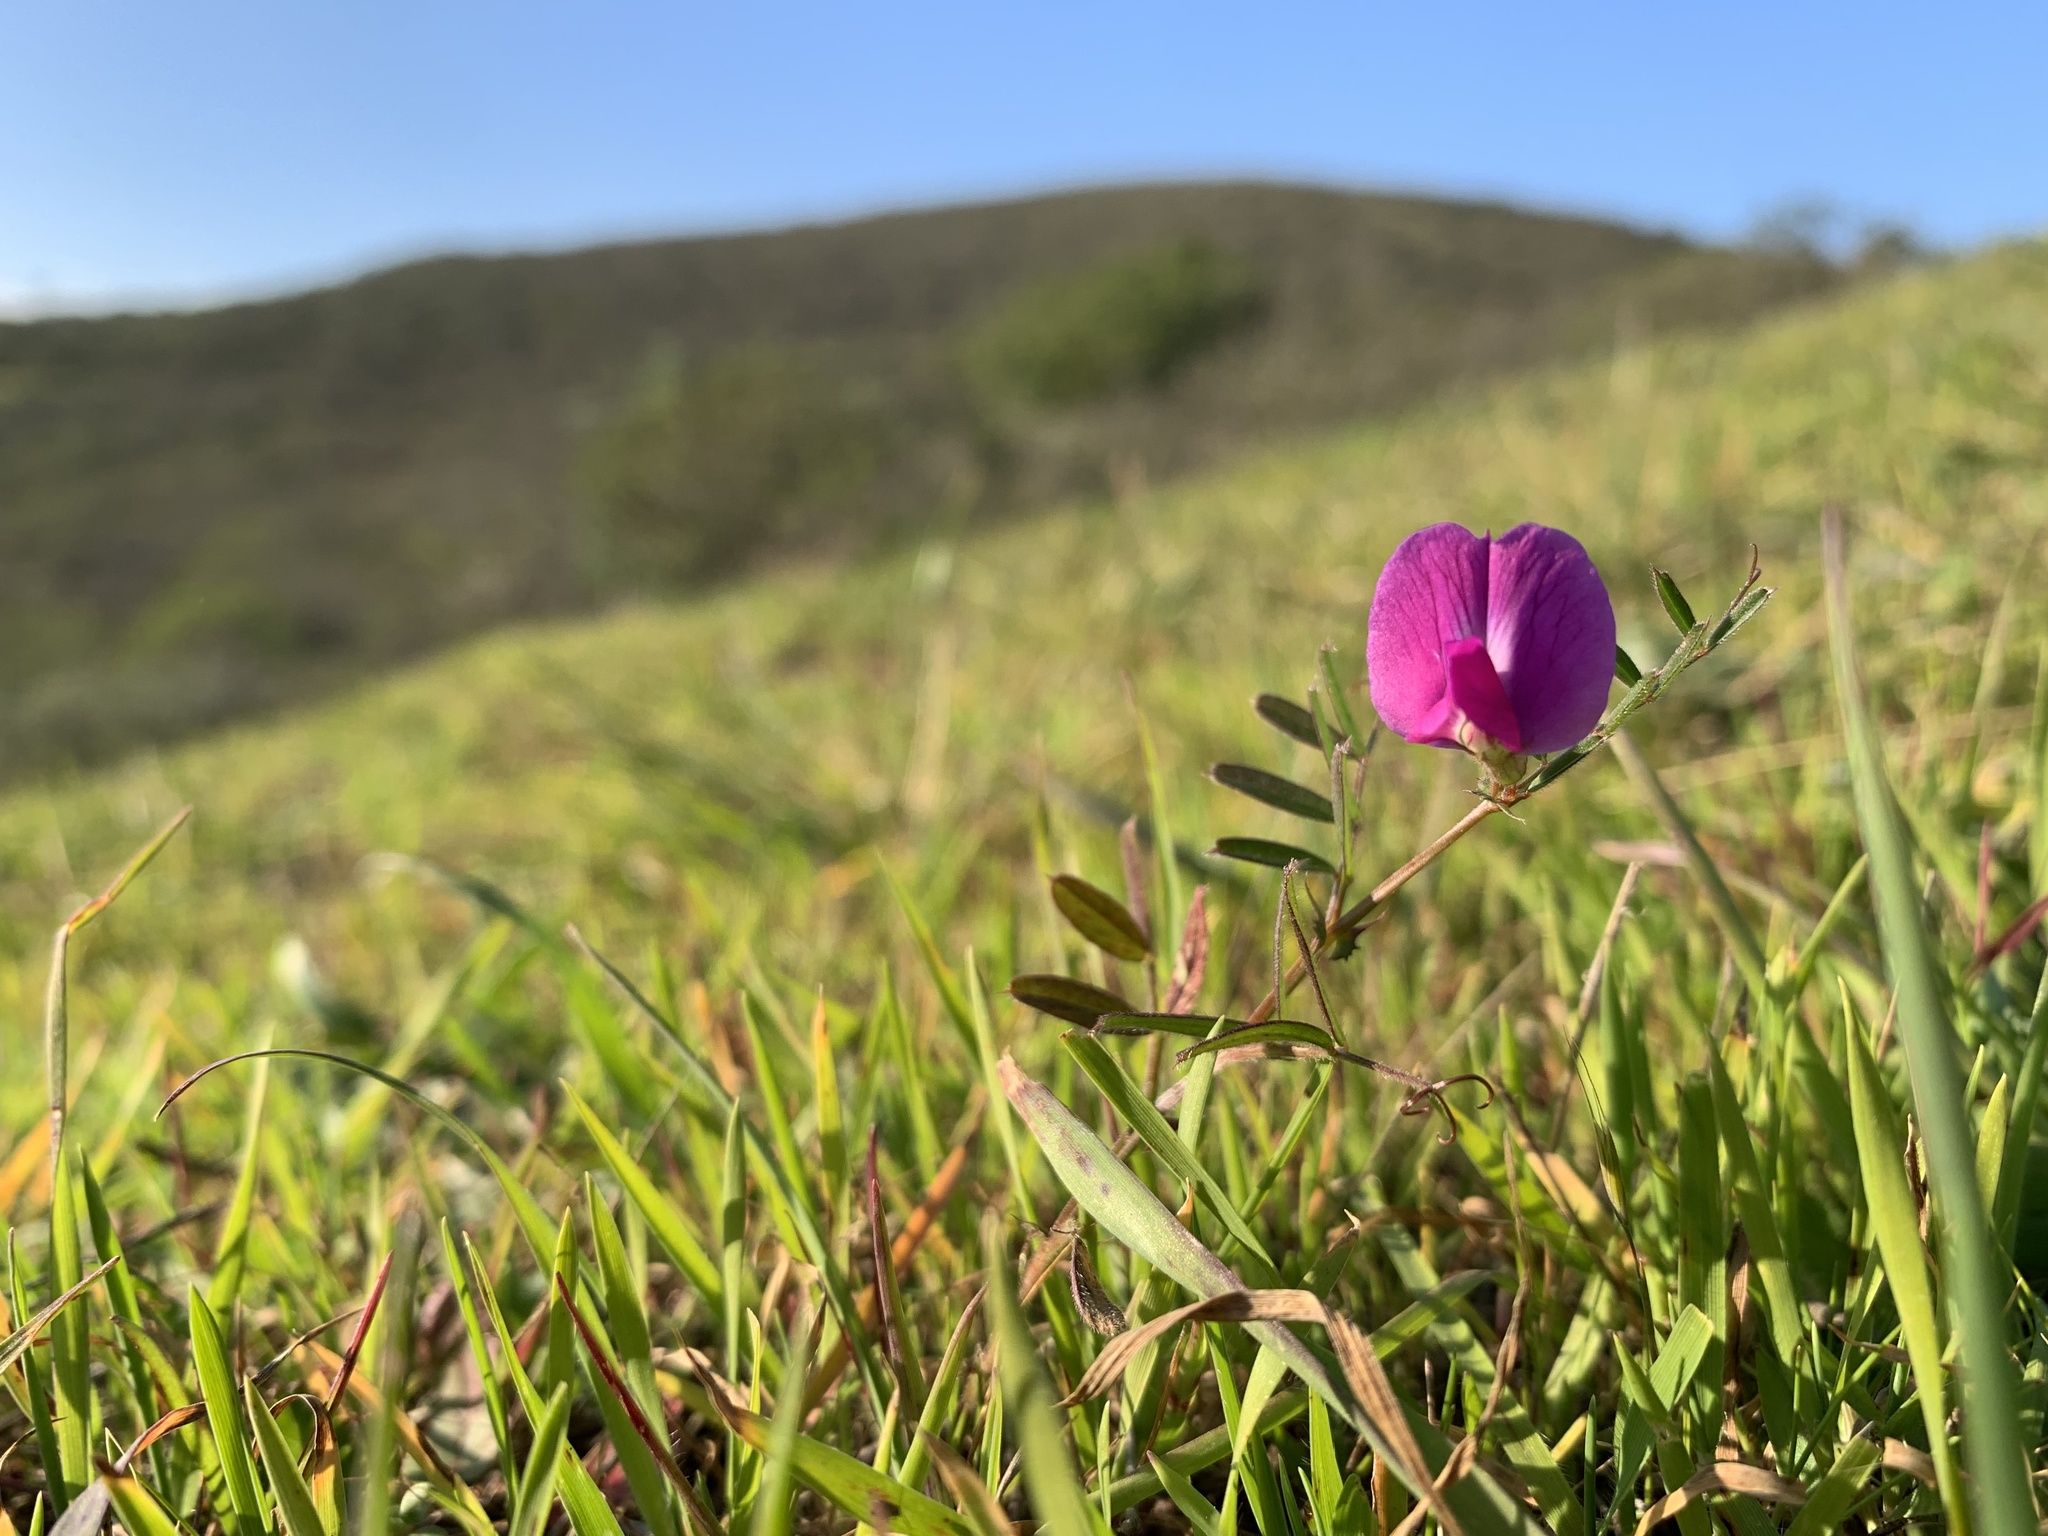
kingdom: Plantae
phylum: Tracheophyta
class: Magnoliopsida
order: Fabales
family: Fabaceae
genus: Vicia
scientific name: Vicia sativa
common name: Garden vetch
